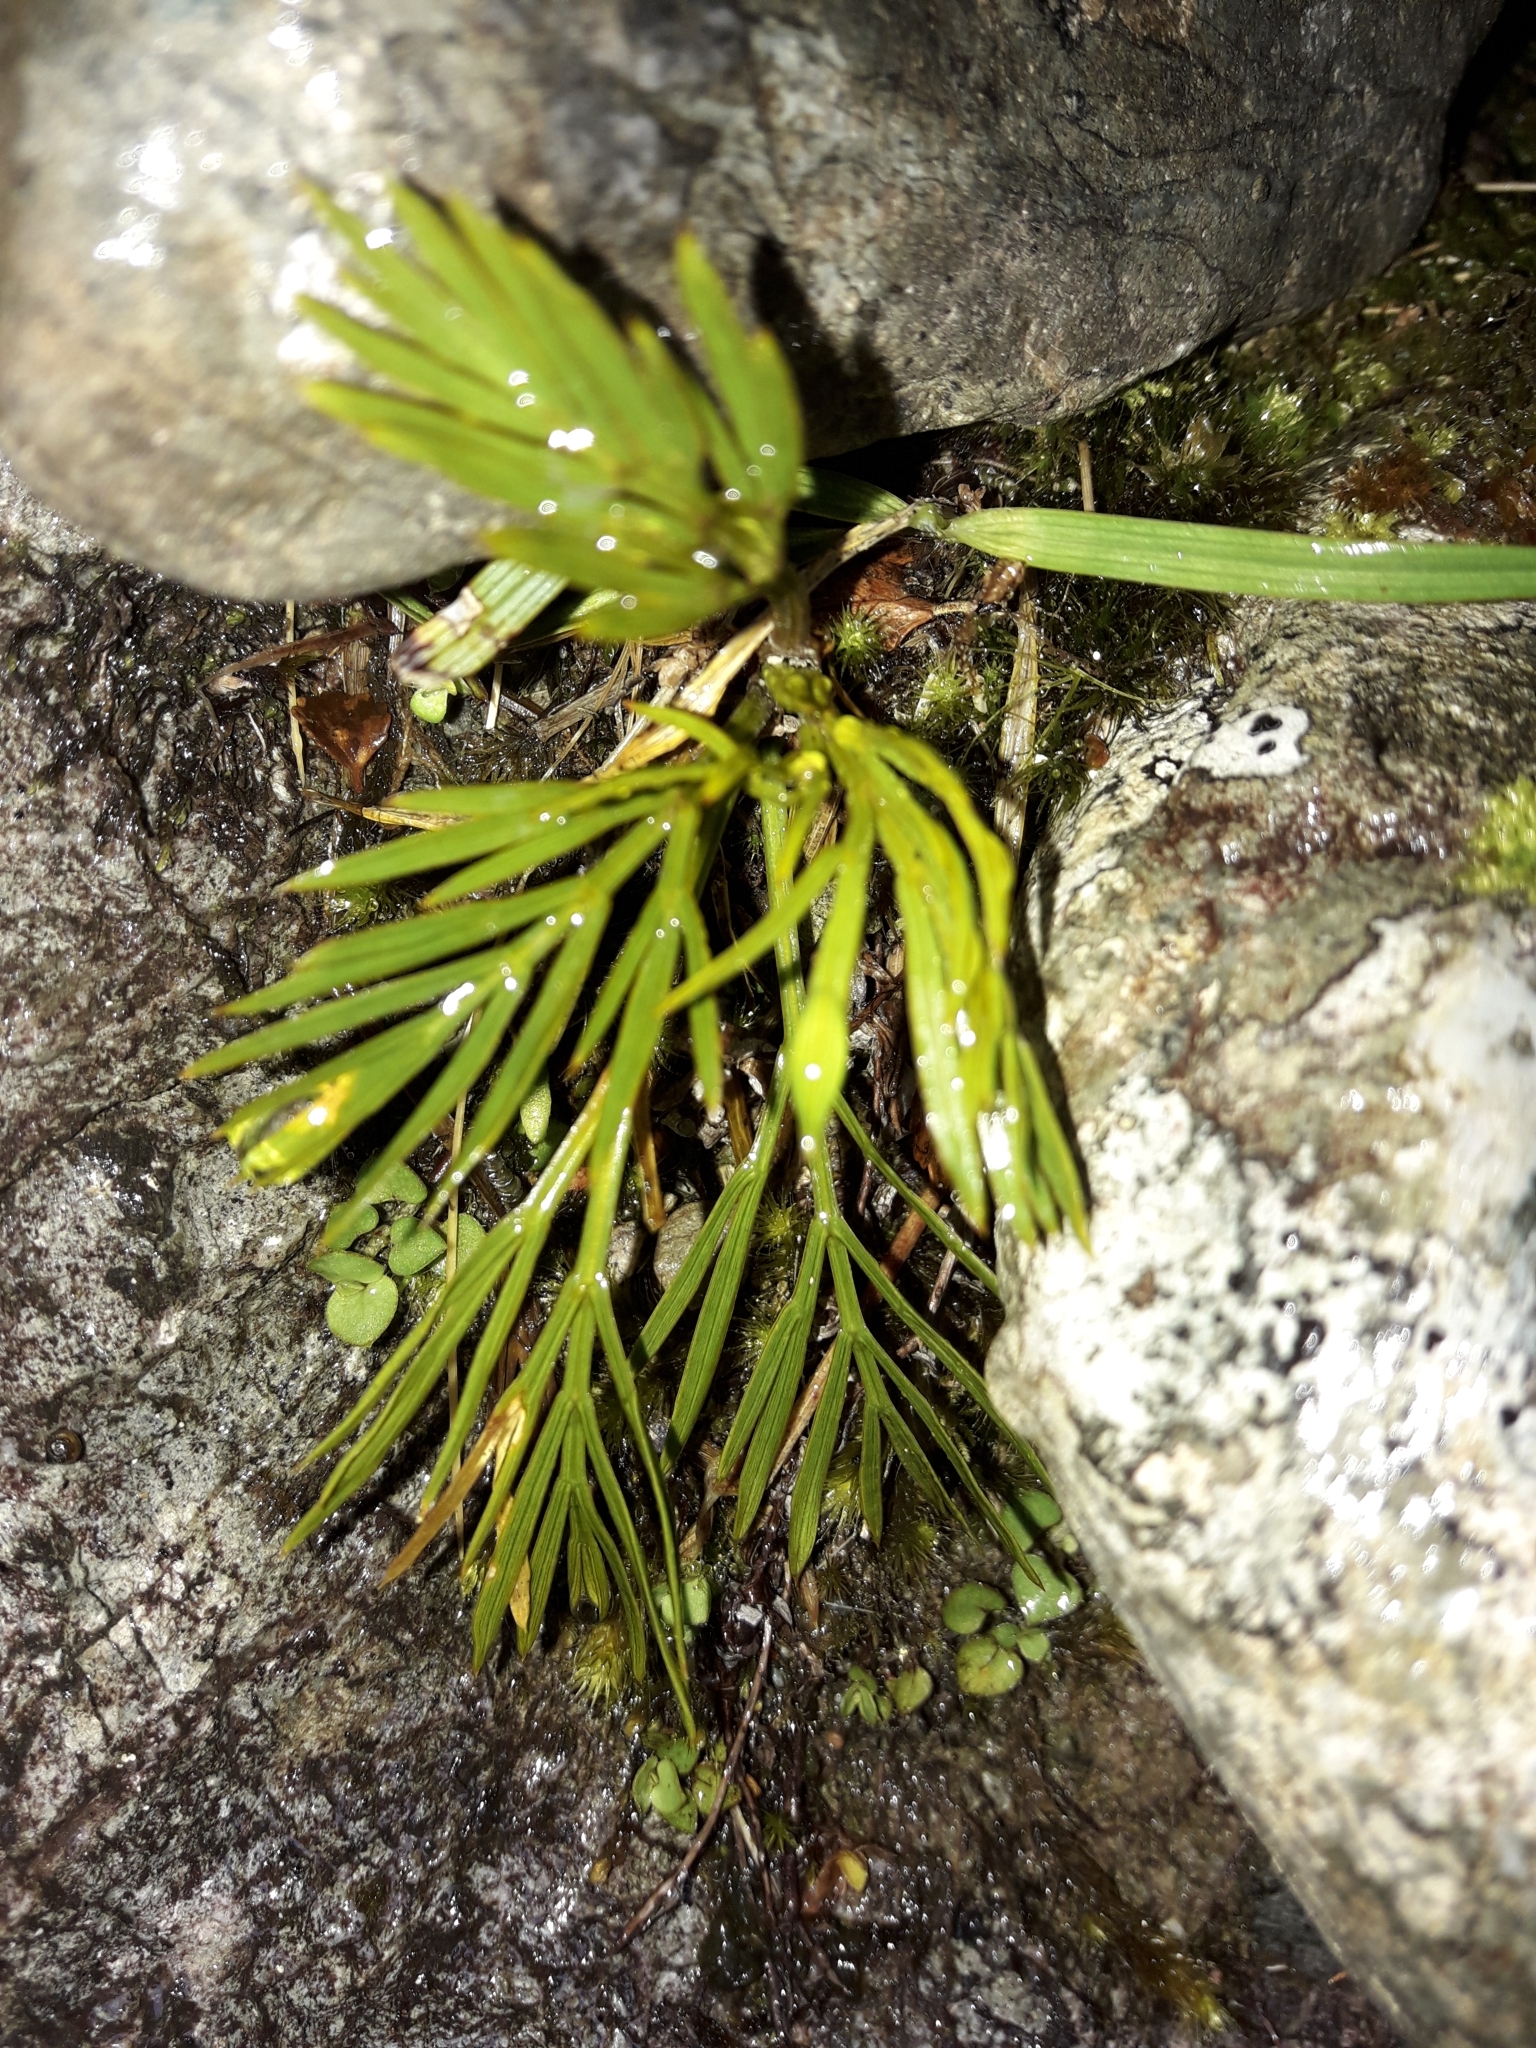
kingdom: Plantae
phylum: Tracheophyta
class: Magnoliopsida
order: Apiales
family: Apiaceae
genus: Aciphylla
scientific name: Aciphylla divisa
